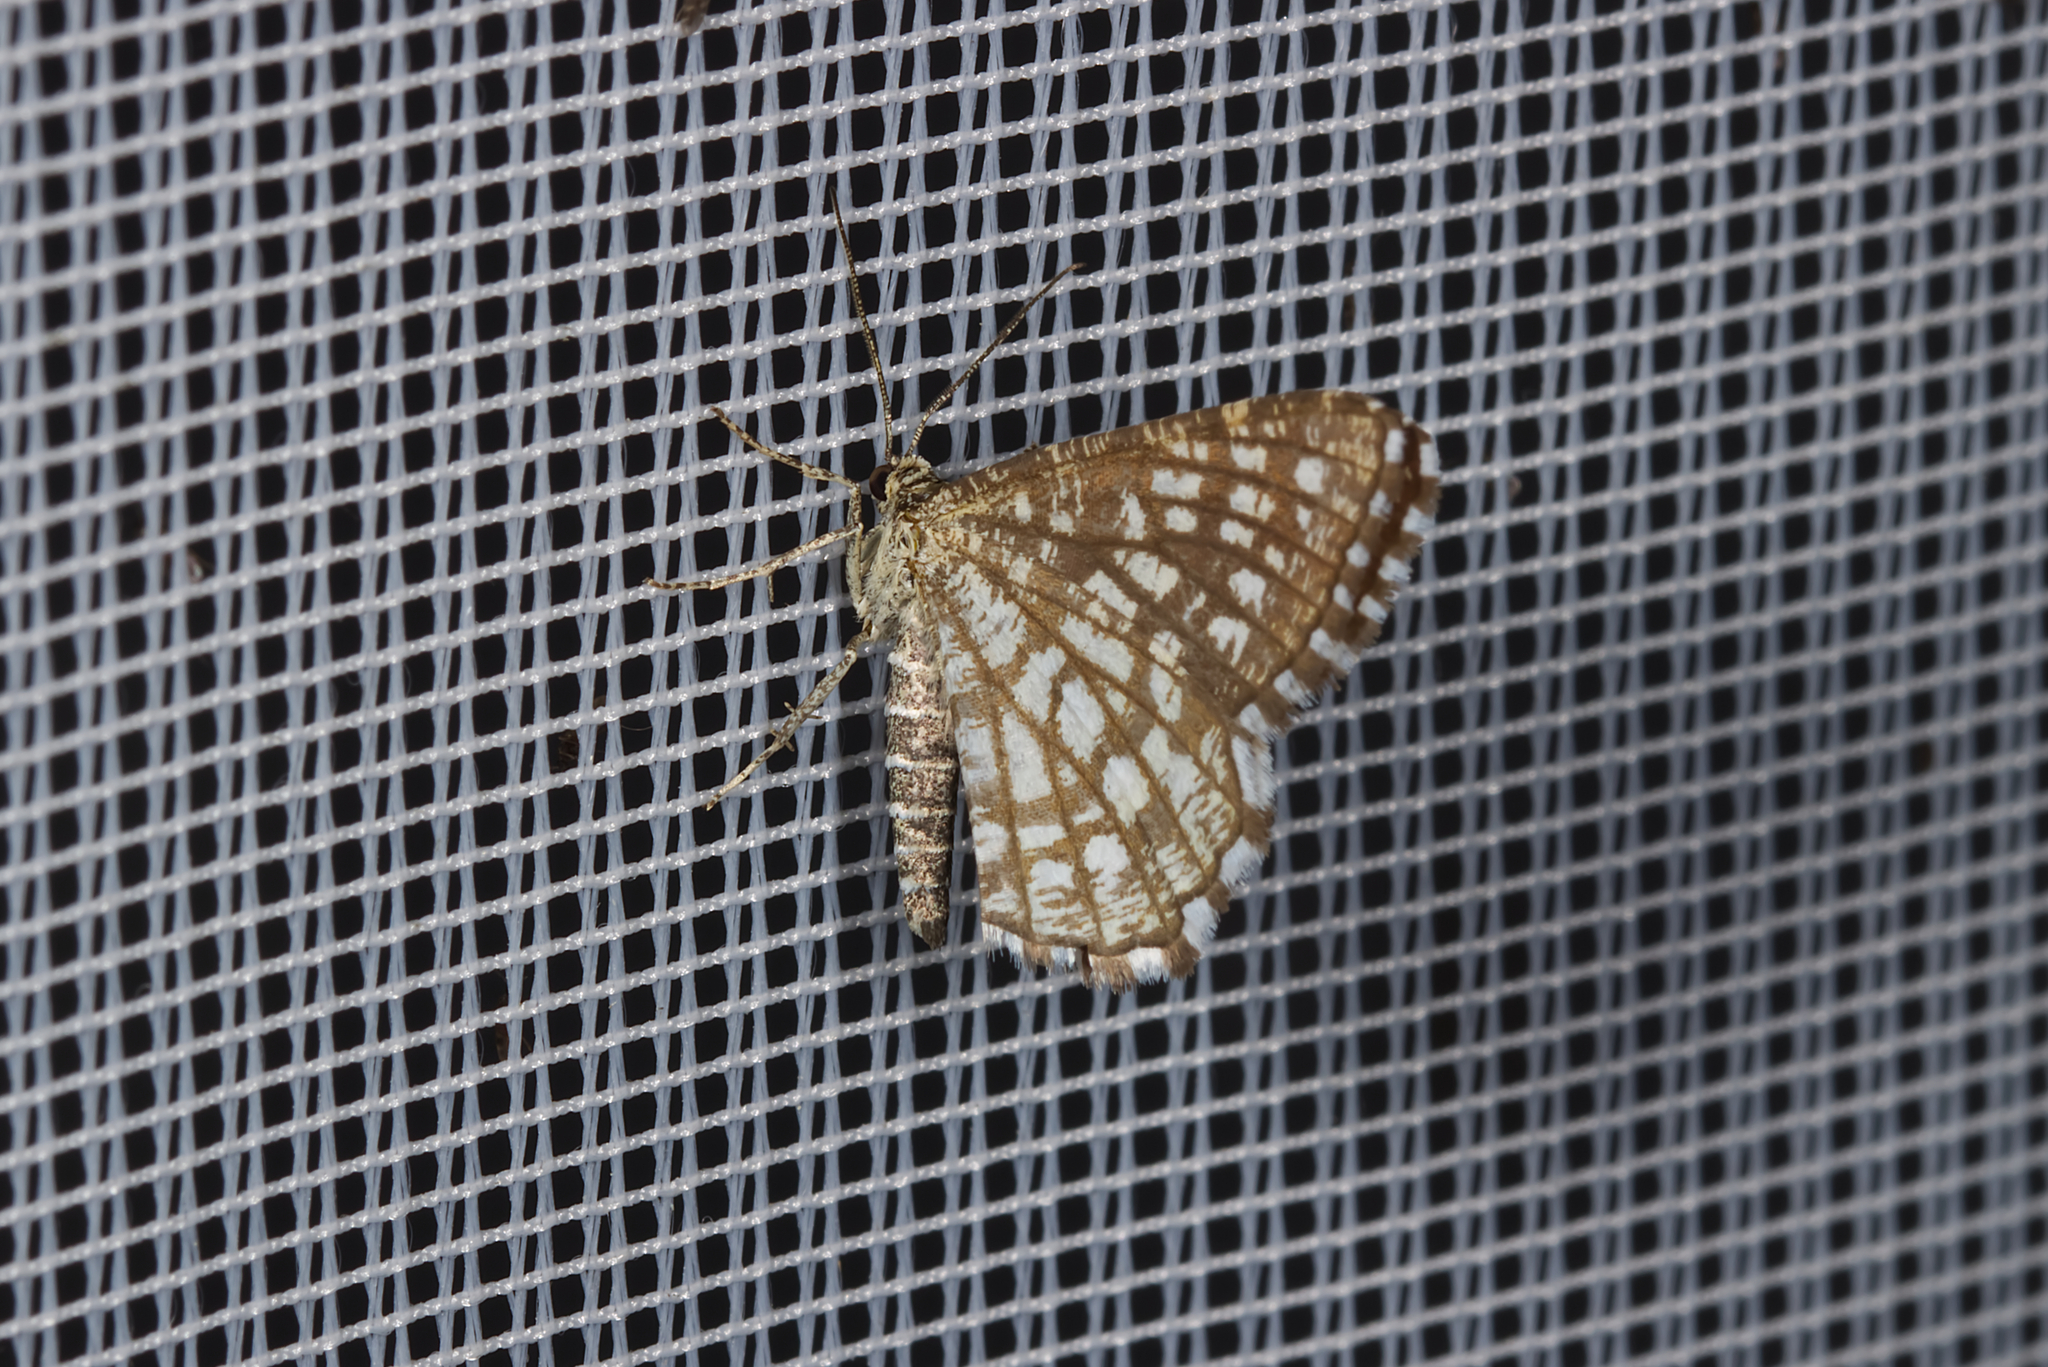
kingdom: Animalia
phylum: Arthropoda
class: Insecta
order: Lepidoptera
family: Geometridae
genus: Chiasmia
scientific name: Chiasmia clathrata
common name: Latticed heath
